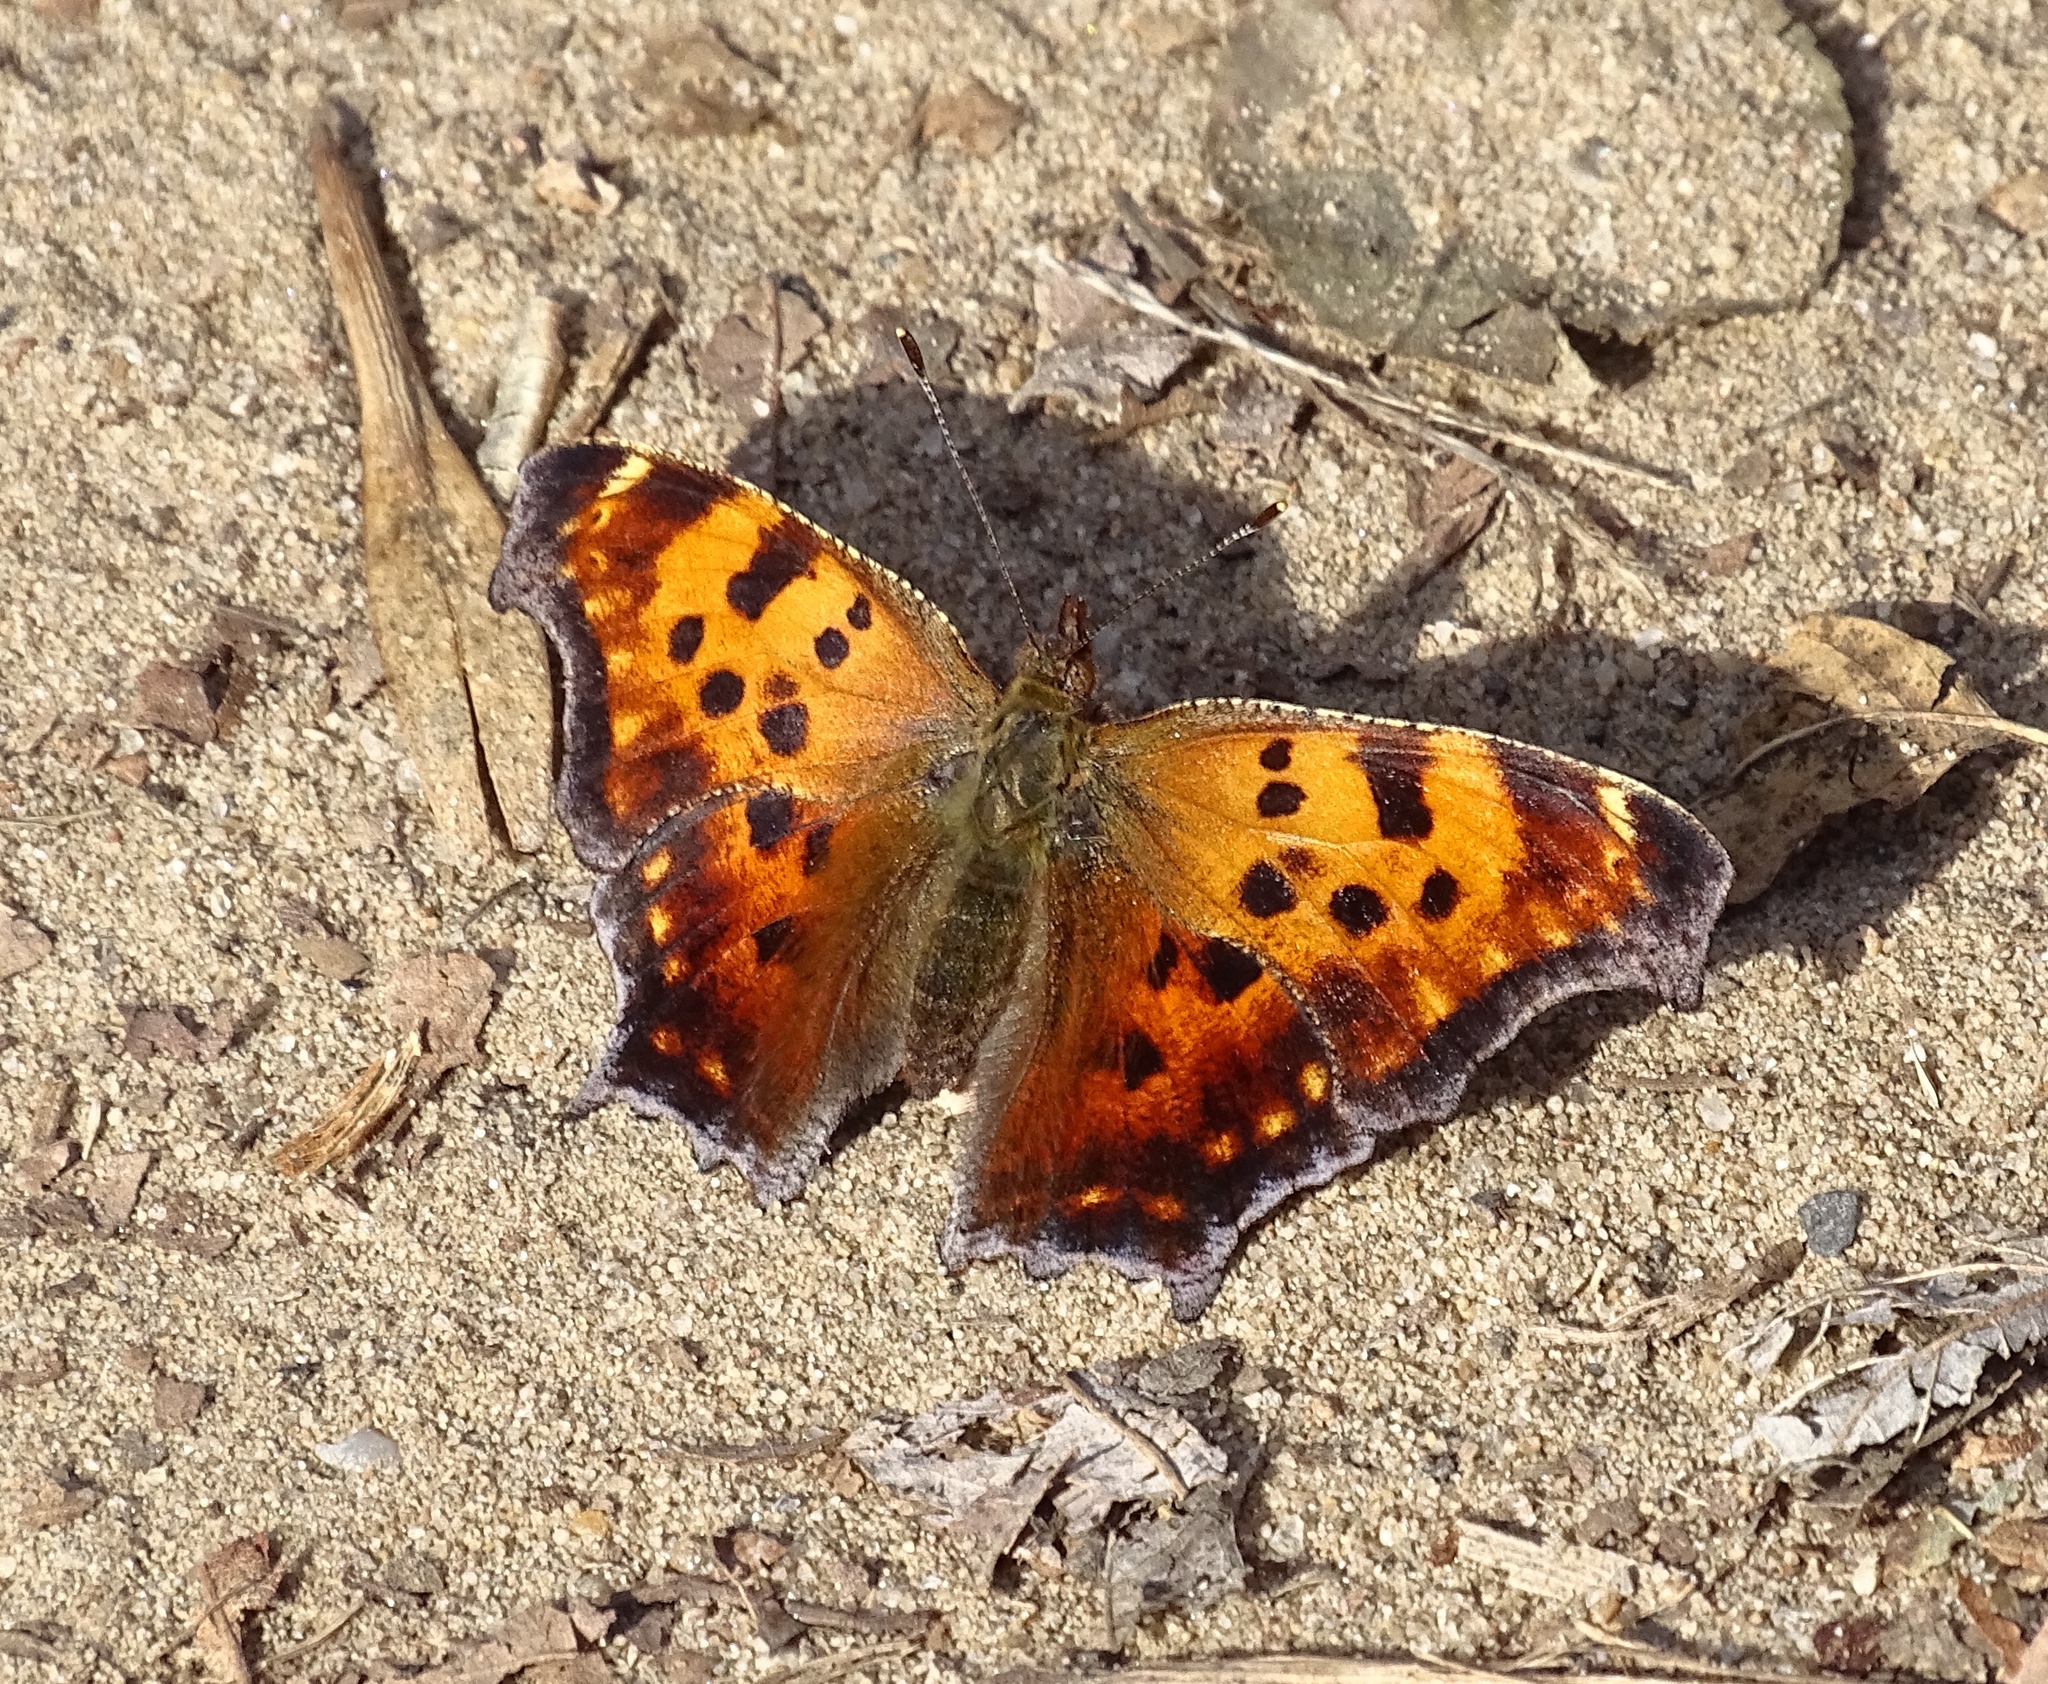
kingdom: Animalia
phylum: Arthropoda
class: Insecta
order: Lepidoptera
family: Nymphalidae
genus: Polygonia
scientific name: Polygonia comma
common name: Eastern comma
